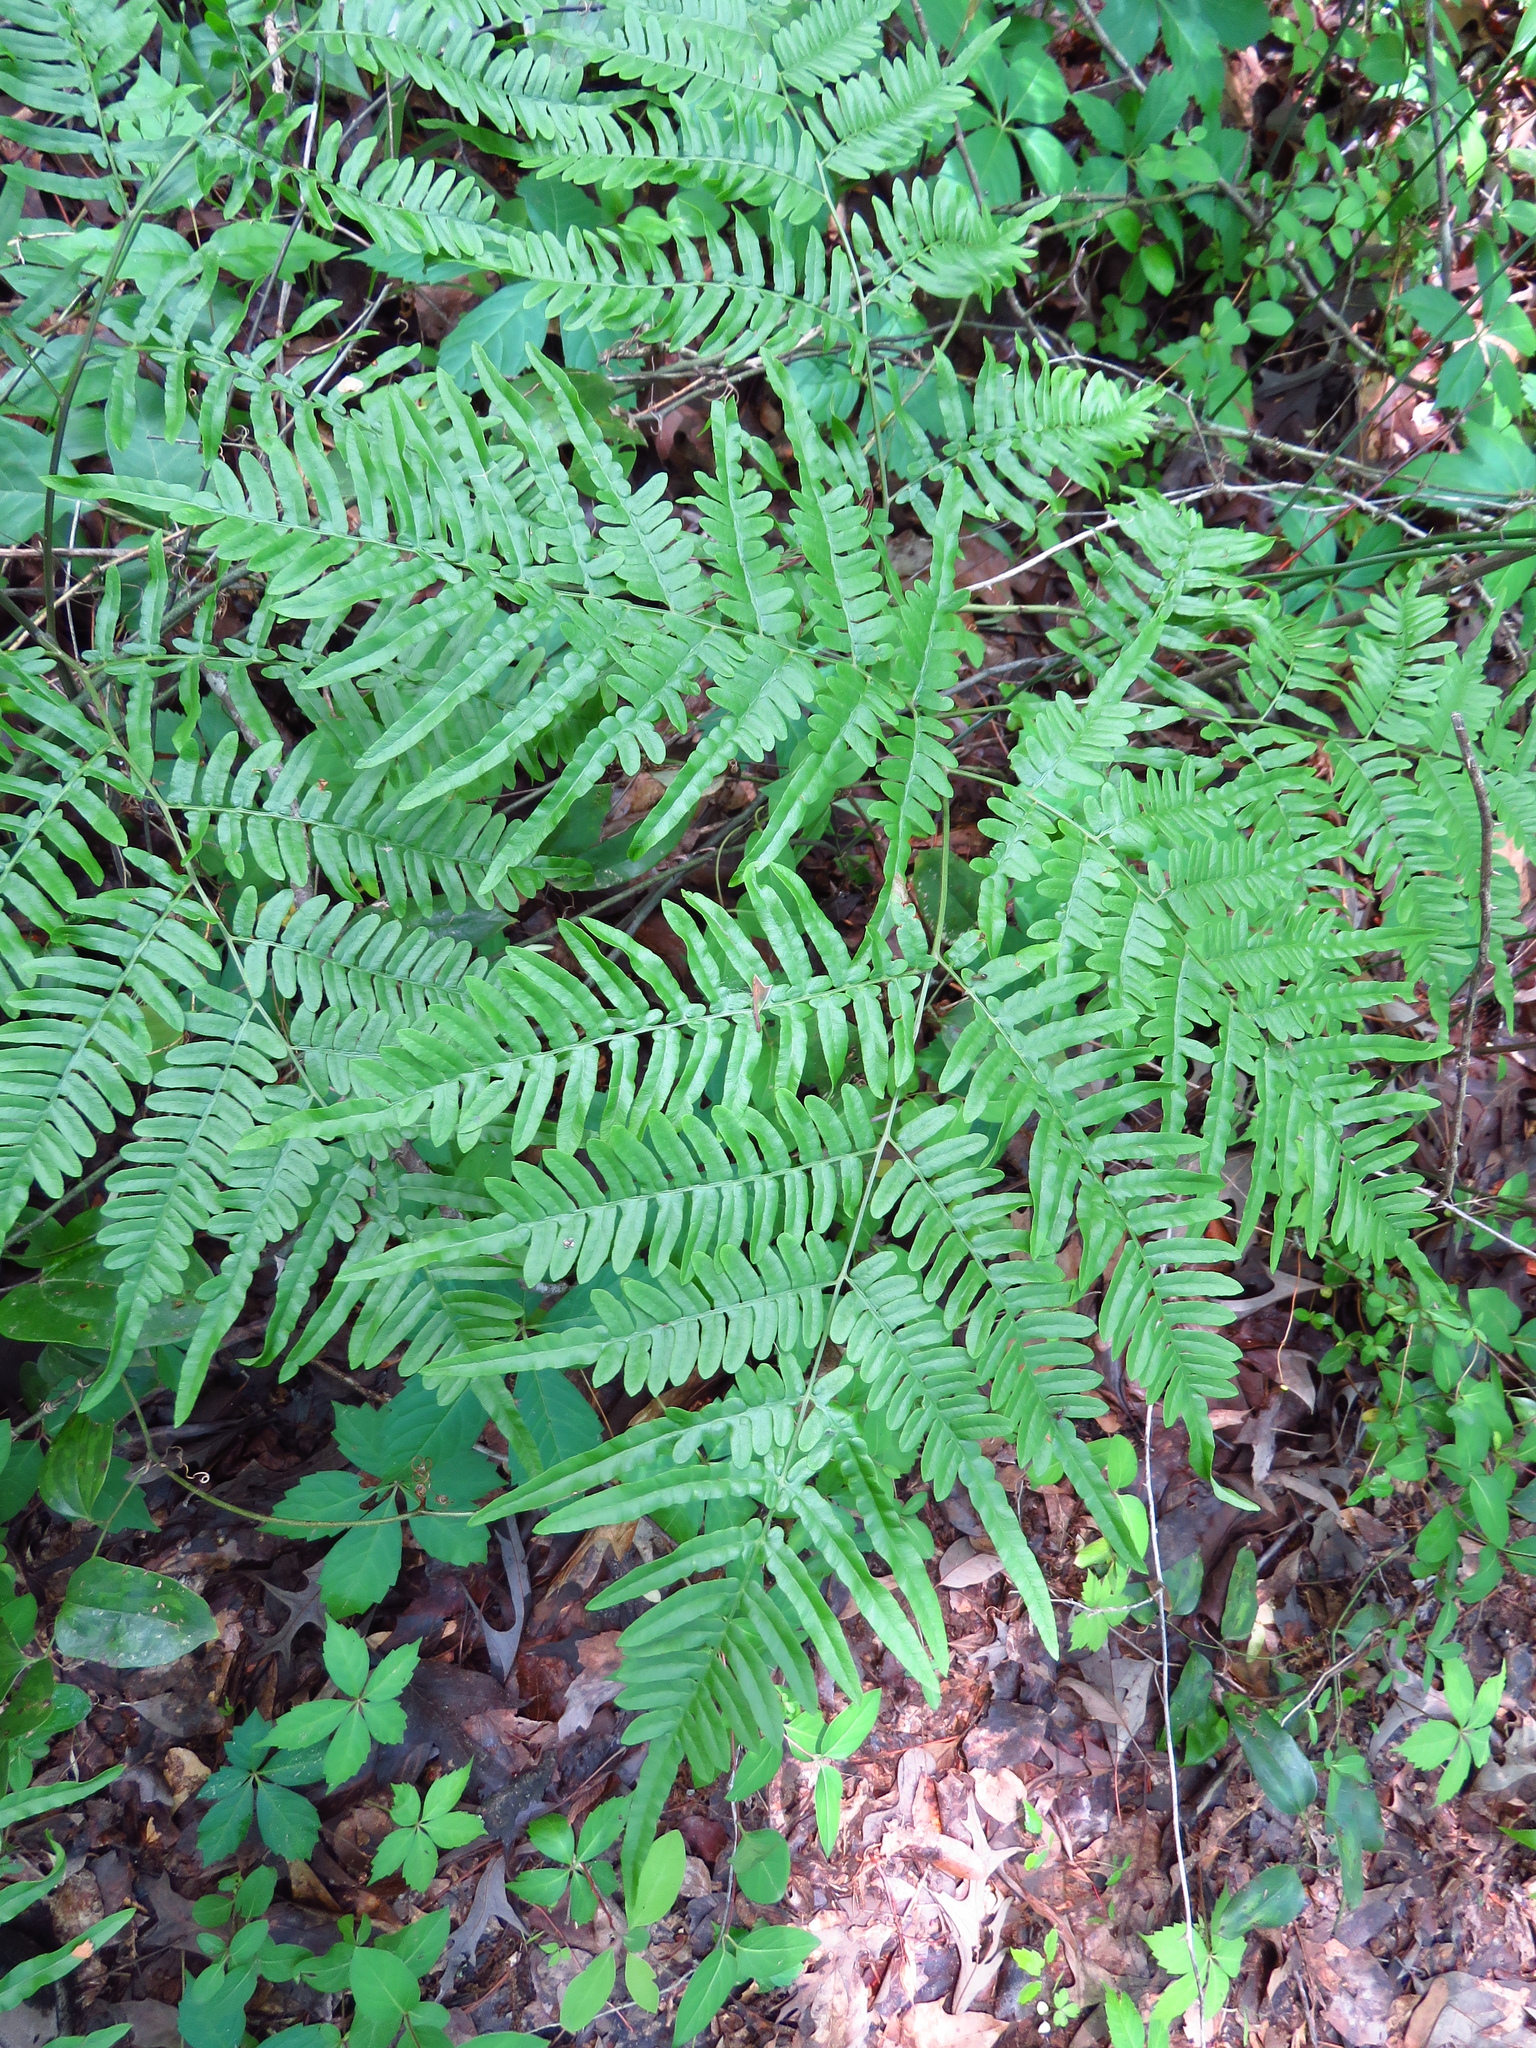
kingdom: Plantae
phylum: Tracheophyta
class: Polypodiopsida
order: Polypodiales
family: Dennstaedtiaceae
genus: Pteridium
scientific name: Pteridium aquilinum
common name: Bracken
